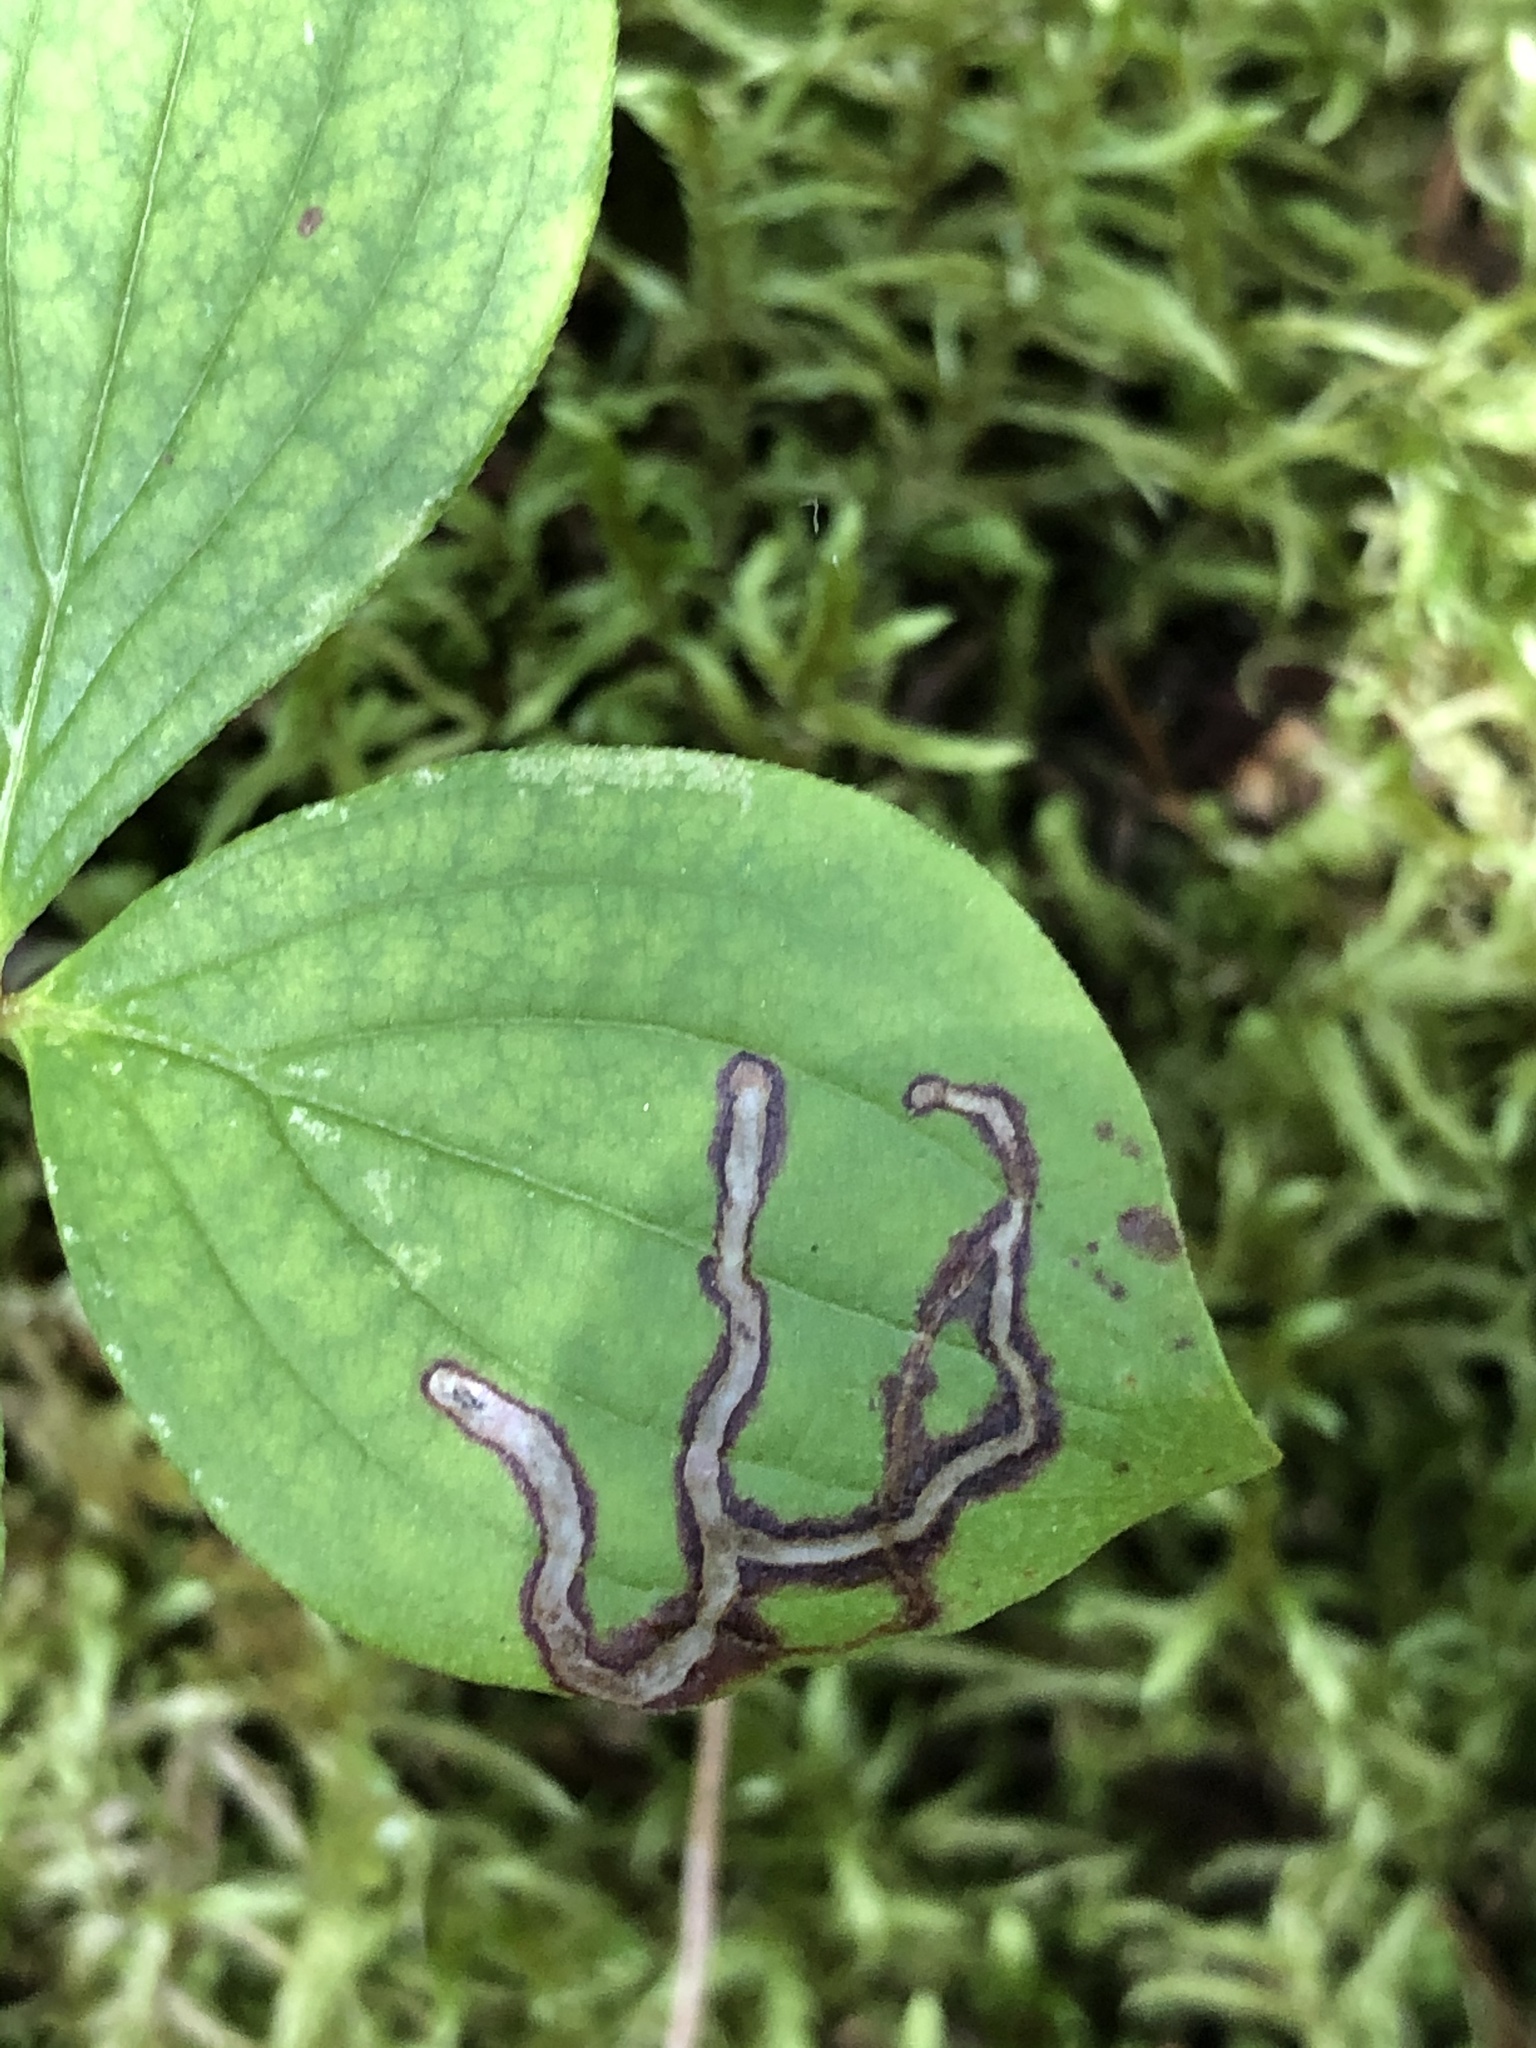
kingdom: Animalia
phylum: Arthropoda
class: Insecta
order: Diptera
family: Agromyzidae
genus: Phytomyza
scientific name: Phytomyza agromyzina
